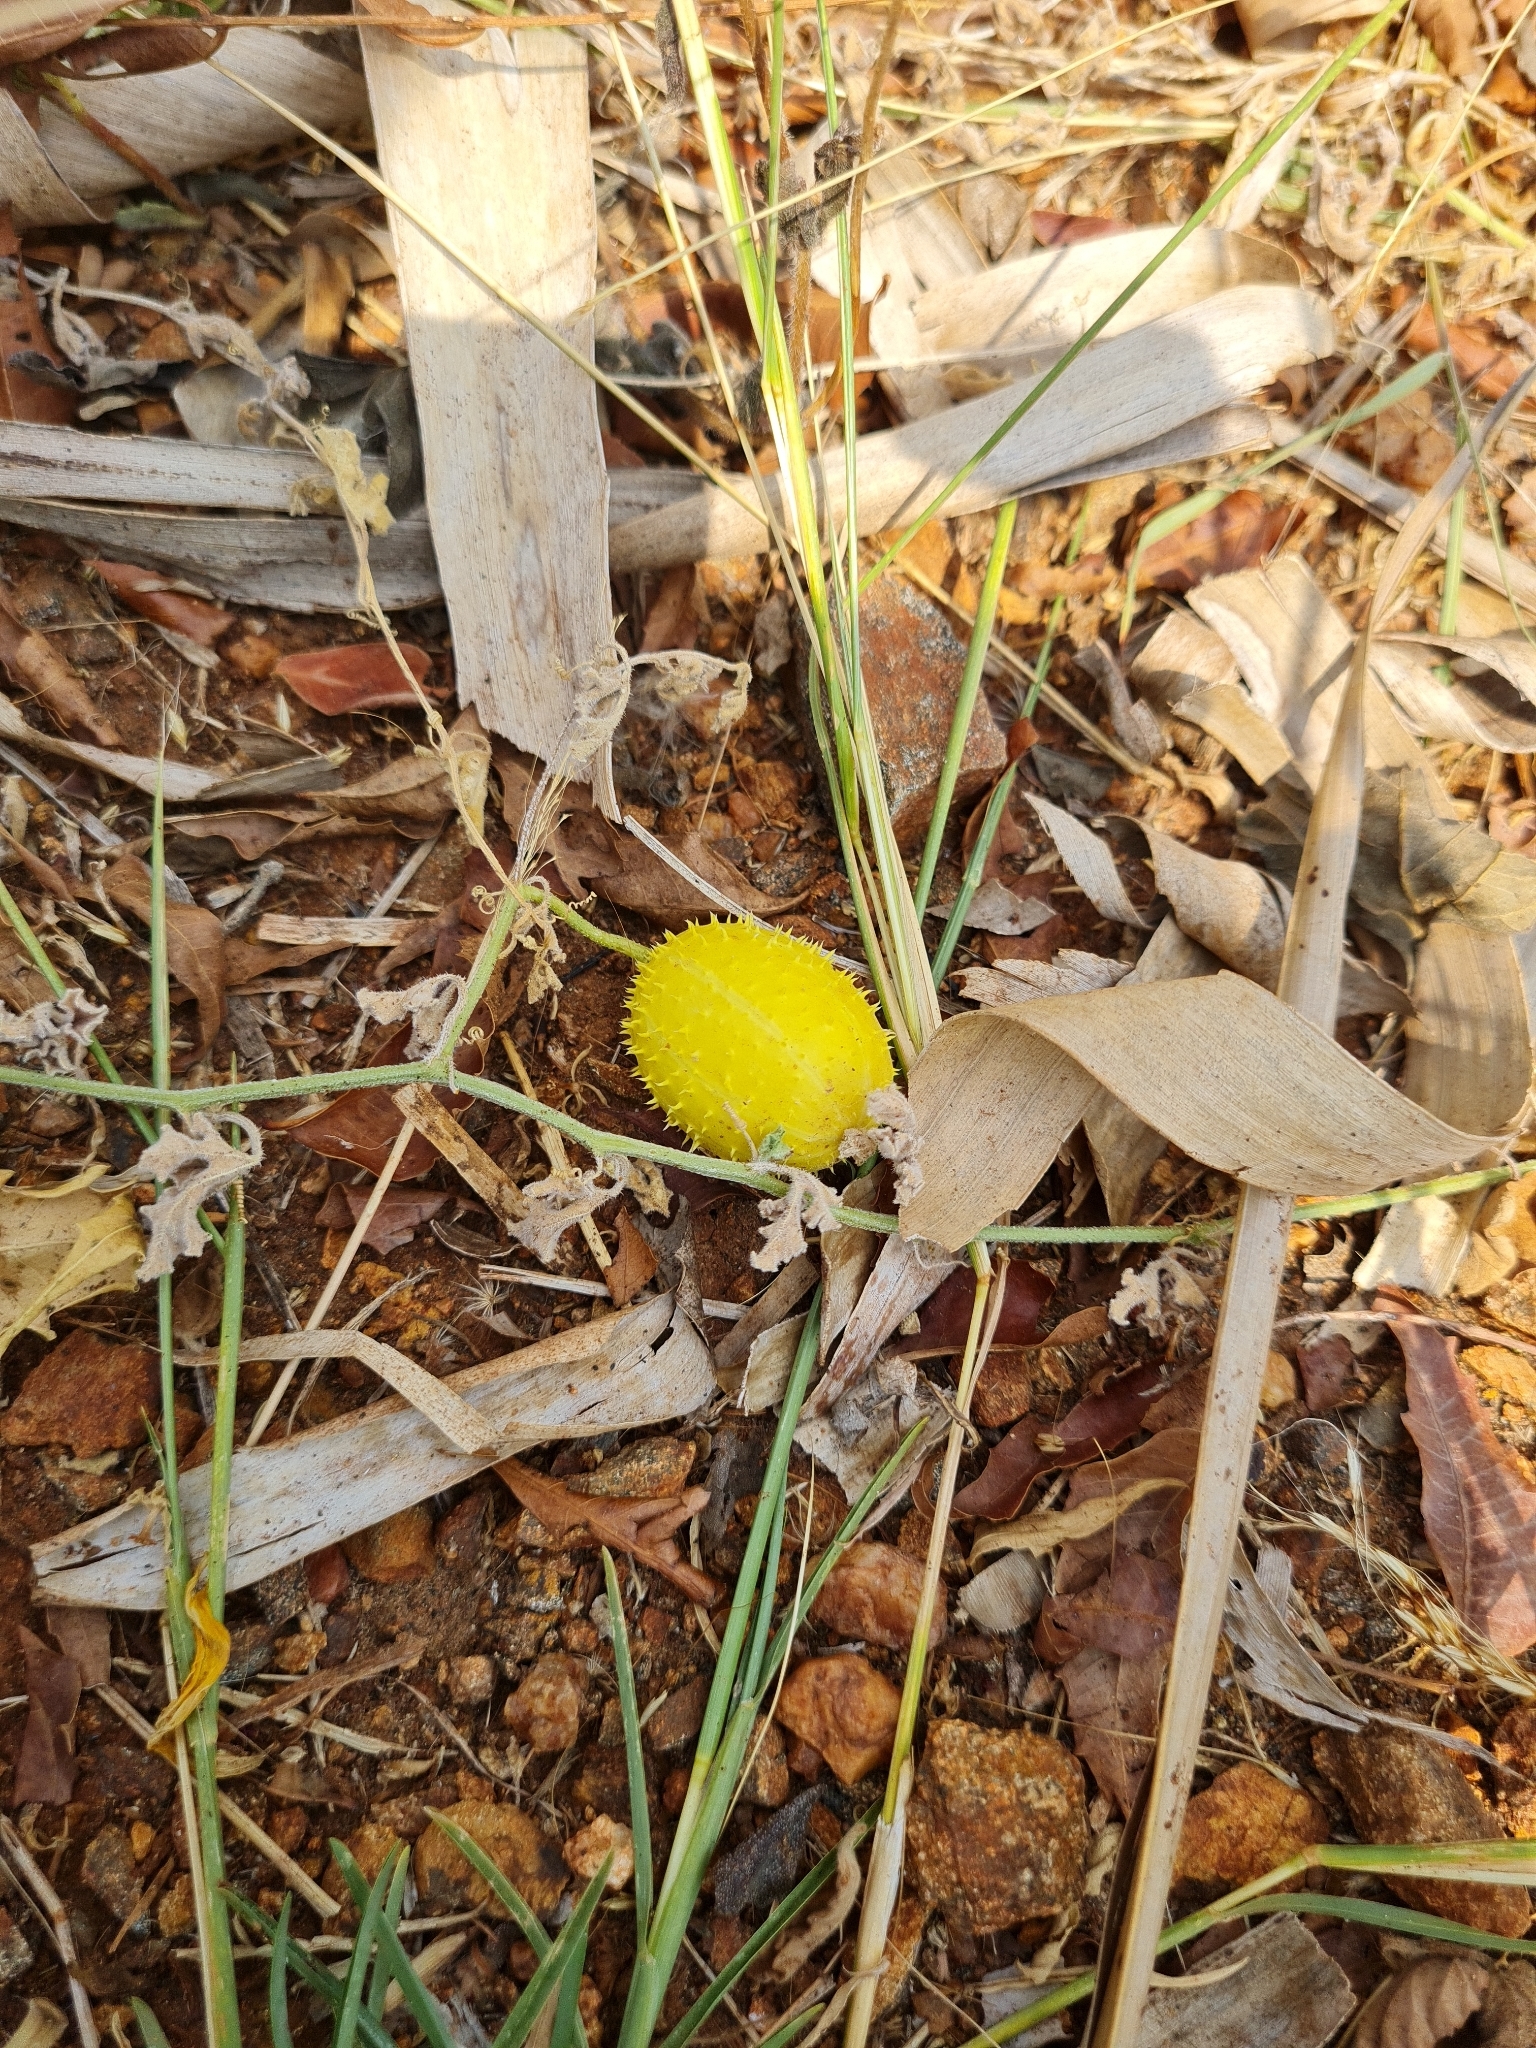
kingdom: Plantae
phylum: Tracheophyta
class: Magnoliopsida
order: Cucurbitales
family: Cucurbitaceae
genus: Cucumis
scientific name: Cucumis dipsaceus
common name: Hedgehog gourd
